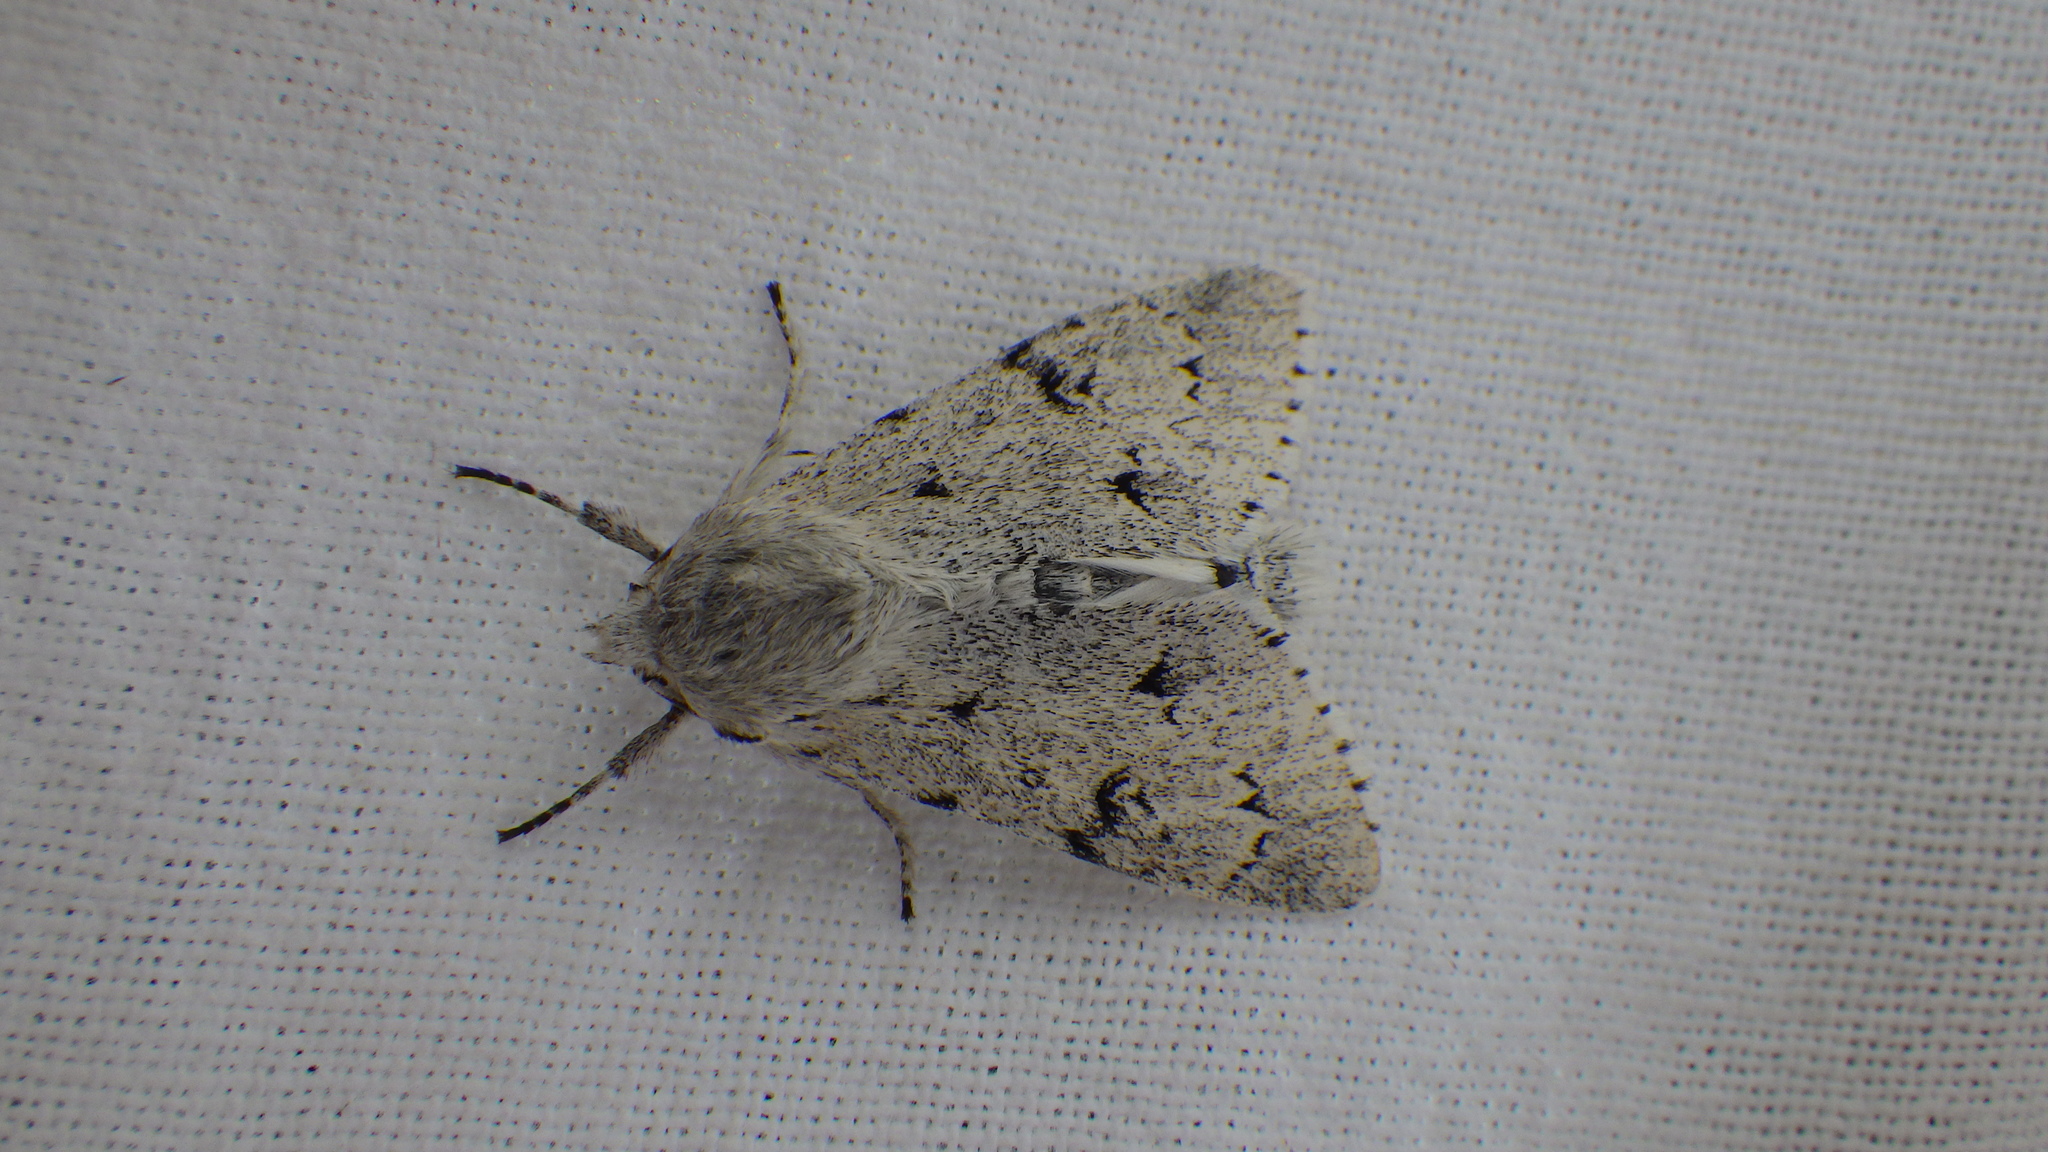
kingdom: Animalia
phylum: Arthropoda
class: Insecta
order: Lepidoptera
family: Noctuidae
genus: Acronicta
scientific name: Acronicta leporina
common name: Miller
